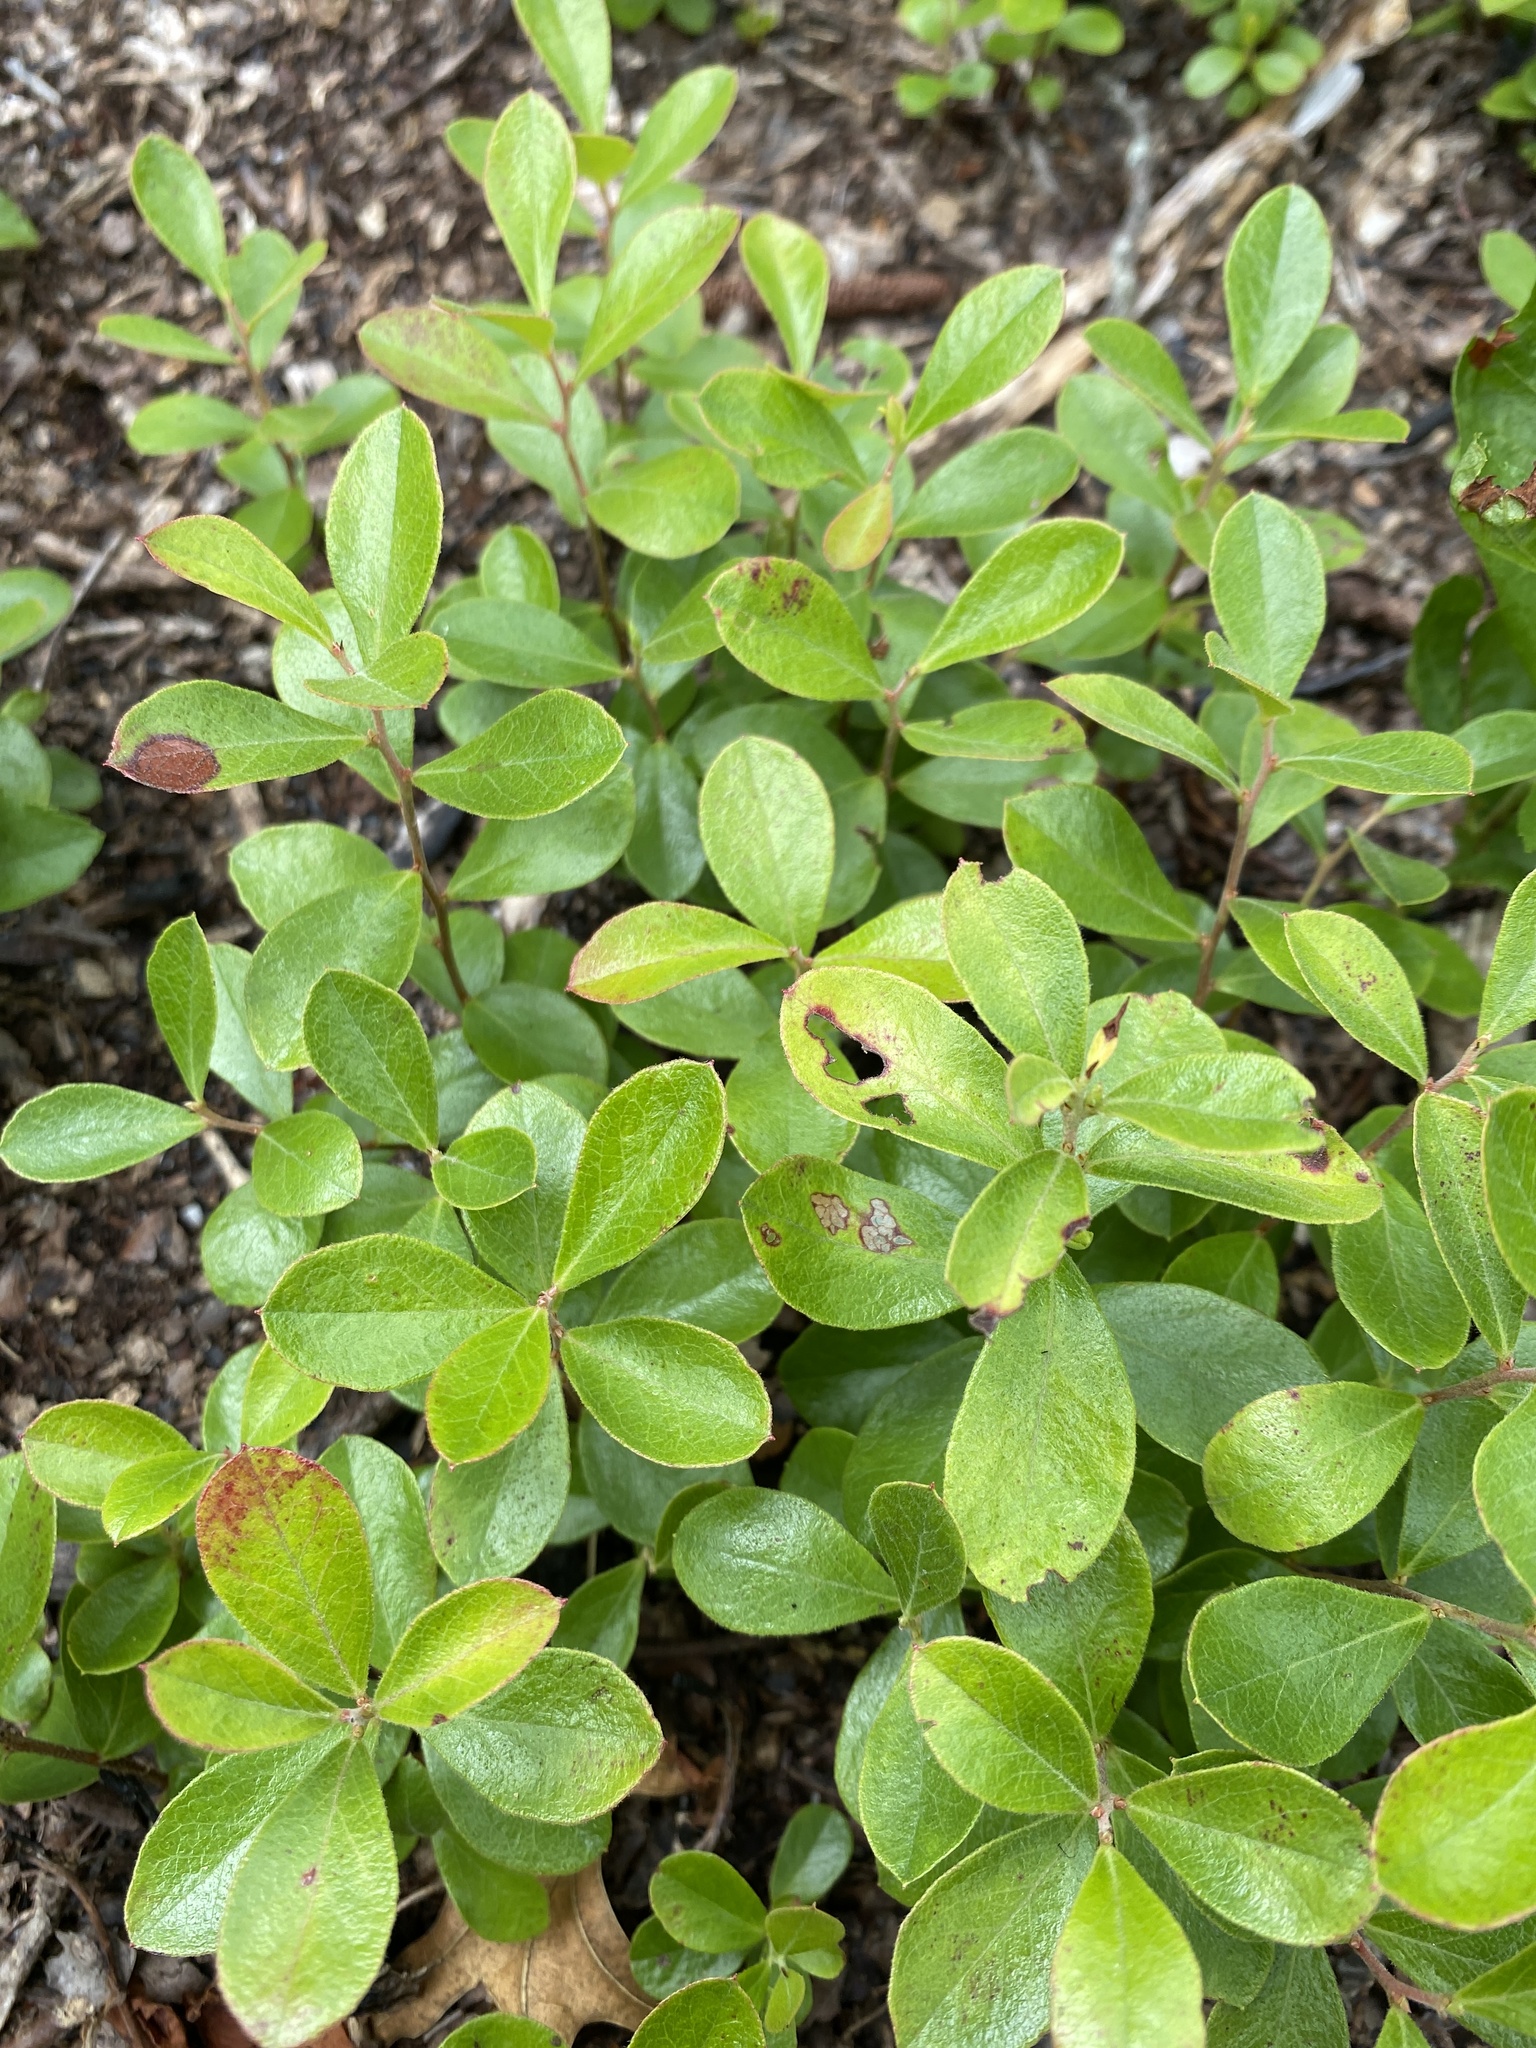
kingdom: Plantae
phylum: Tracheophyta
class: Magnoliopsida
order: Ericales
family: Ericaceae
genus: Gaylussacia
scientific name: Gaylussacia dumosa
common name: Dwarf huckleberry
